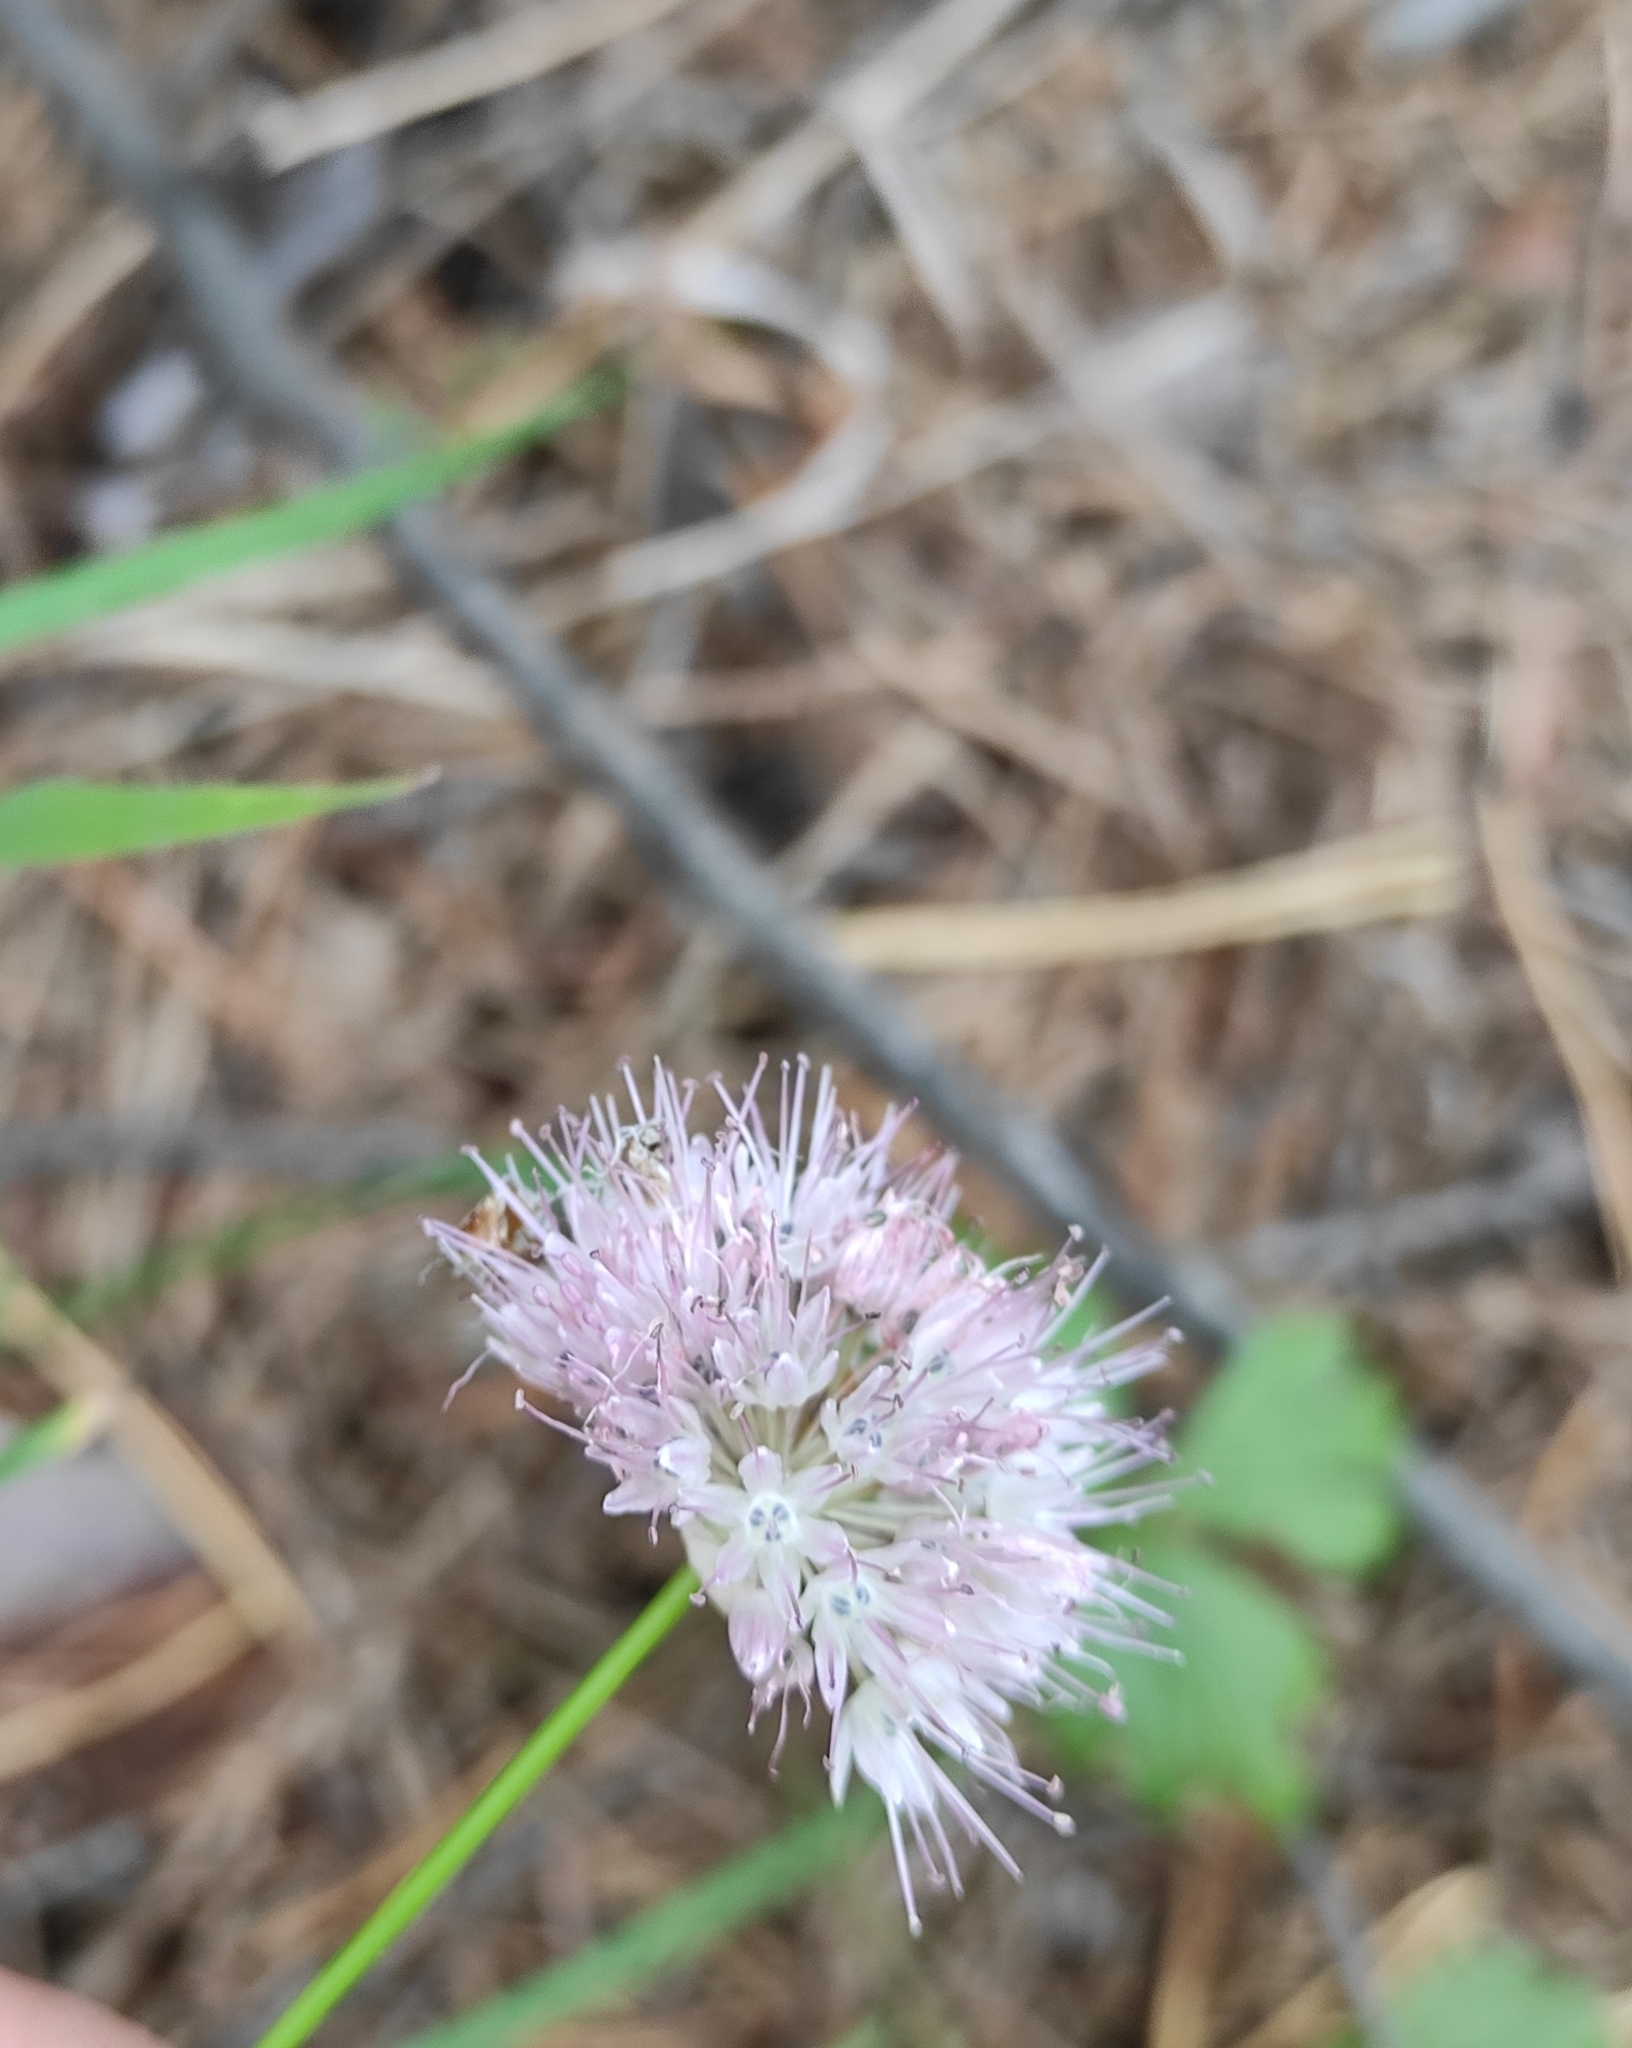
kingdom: Plantae
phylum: Tracheophyta
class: Liliopsida
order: Asparagales
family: Amaryllidaceae
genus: Allium
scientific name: Allium splendens
